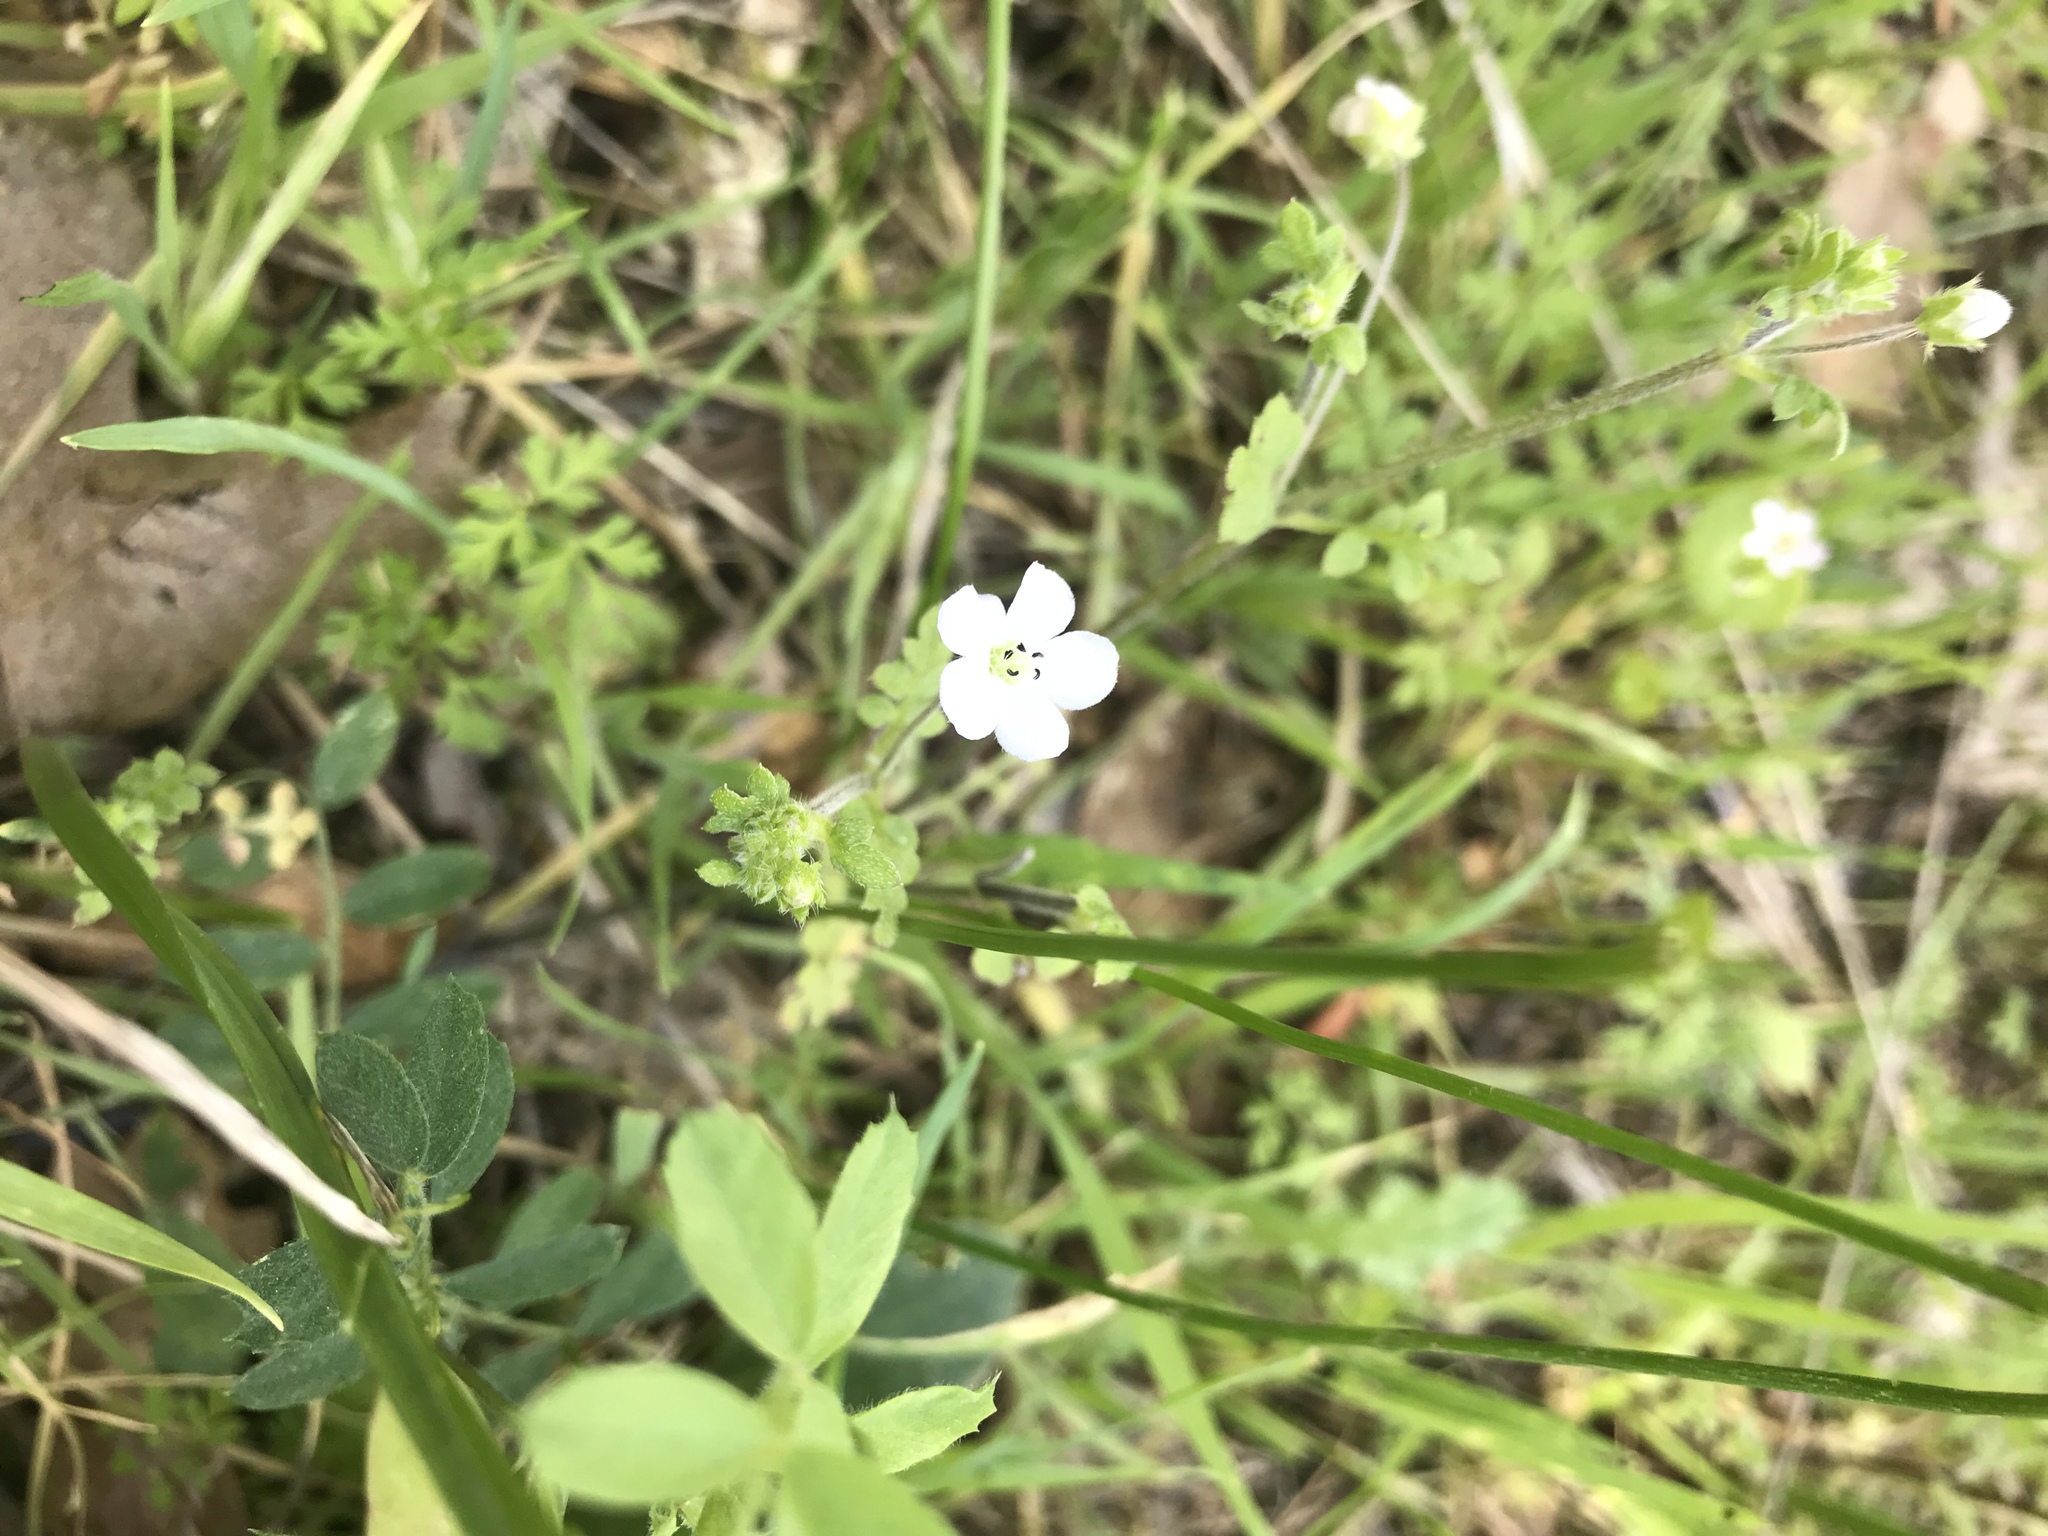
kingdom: Plantae
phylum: Tracheophyta
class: Magnoliopsida
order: Boraginales
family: Hydrophyllaceae
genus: Nemophila
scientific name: Nemophila heterophylla
